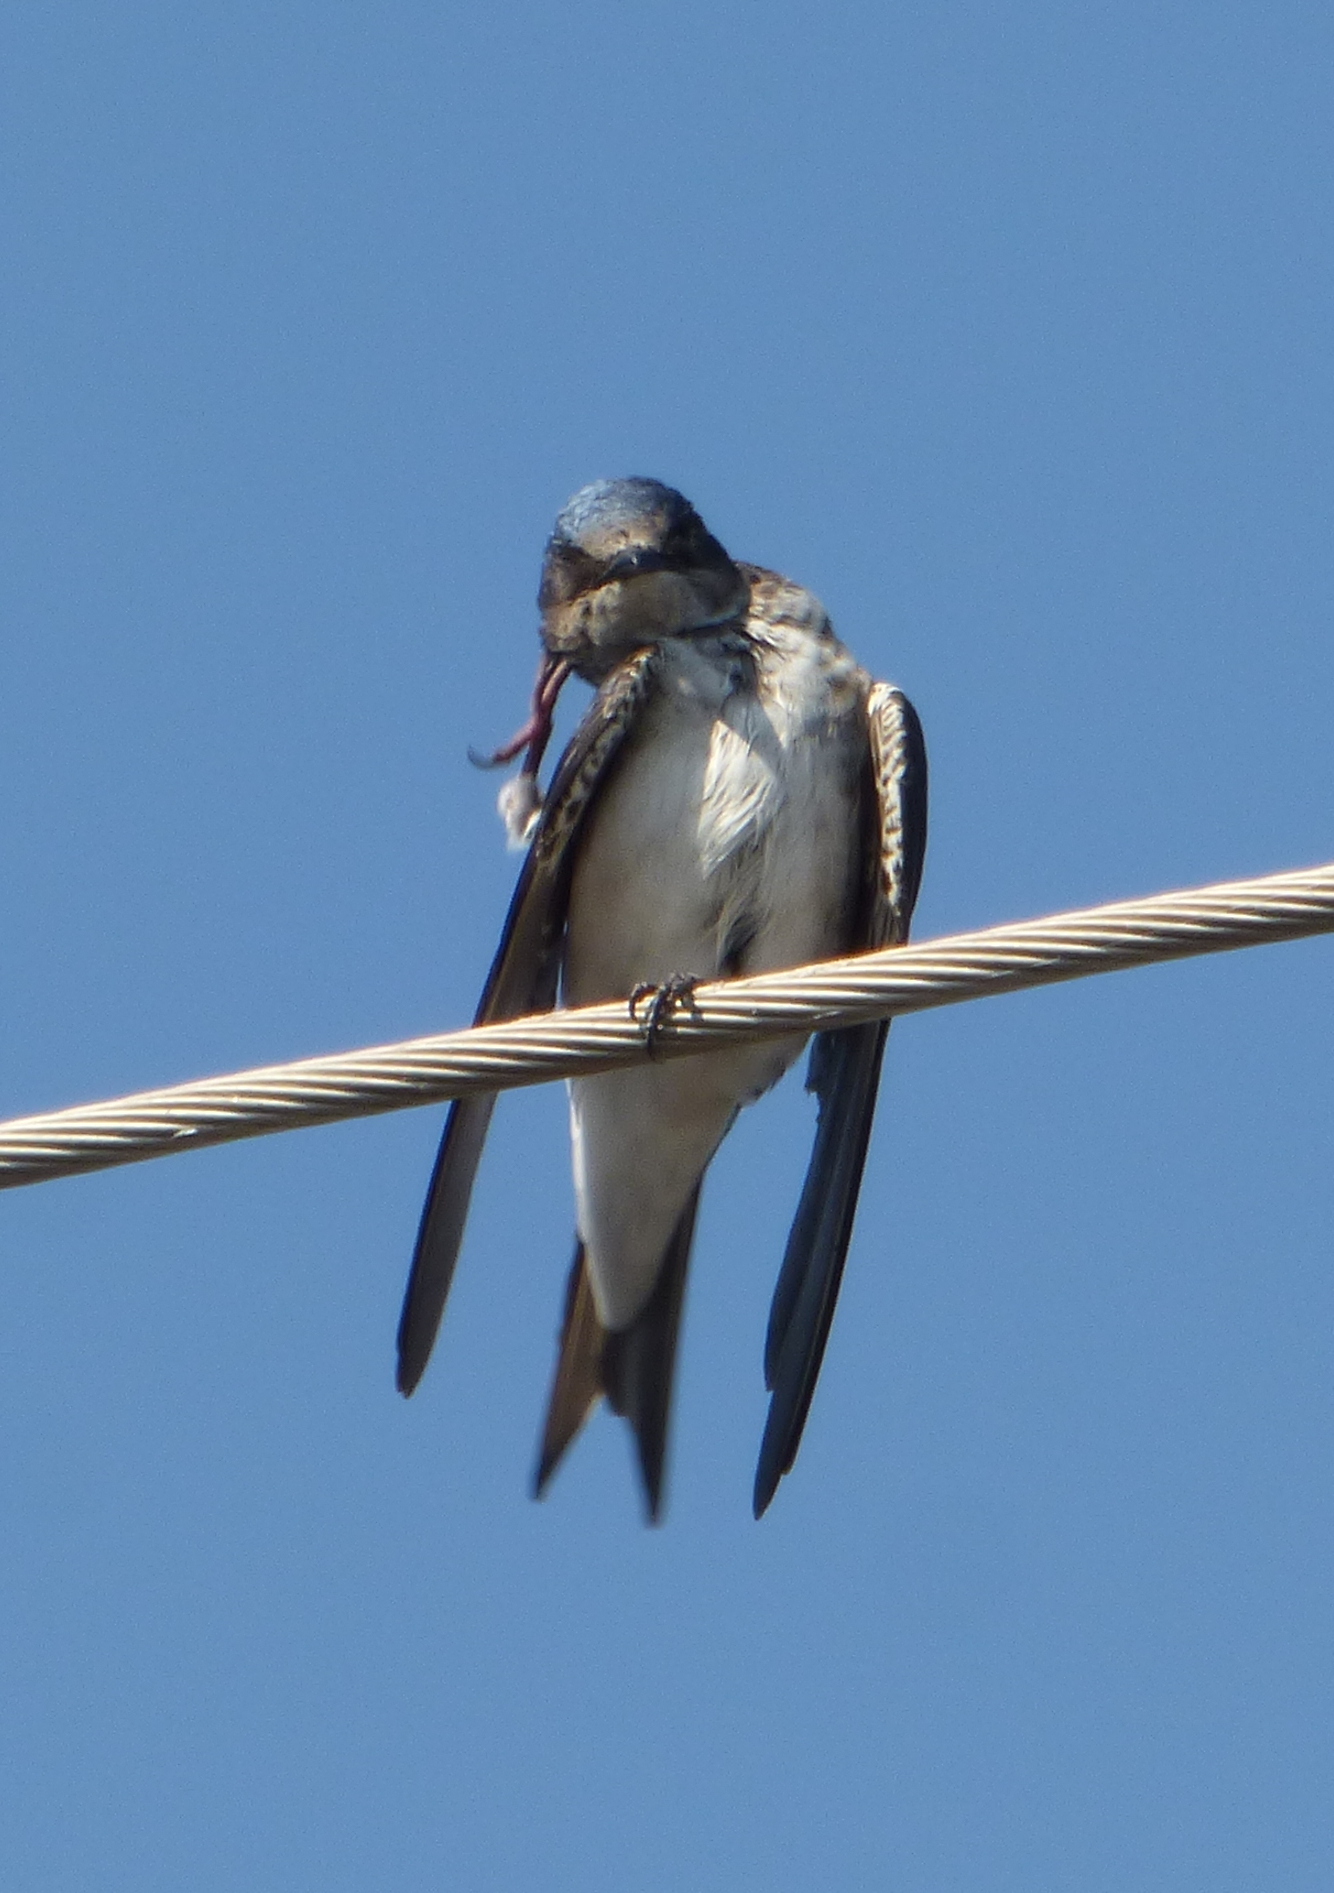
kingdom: Animalia
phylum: Chordata
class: Aves
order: Passeriformes
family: Hirundinidae
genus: Progne
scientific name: Progne chalybea
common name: Grey-breasted martin
